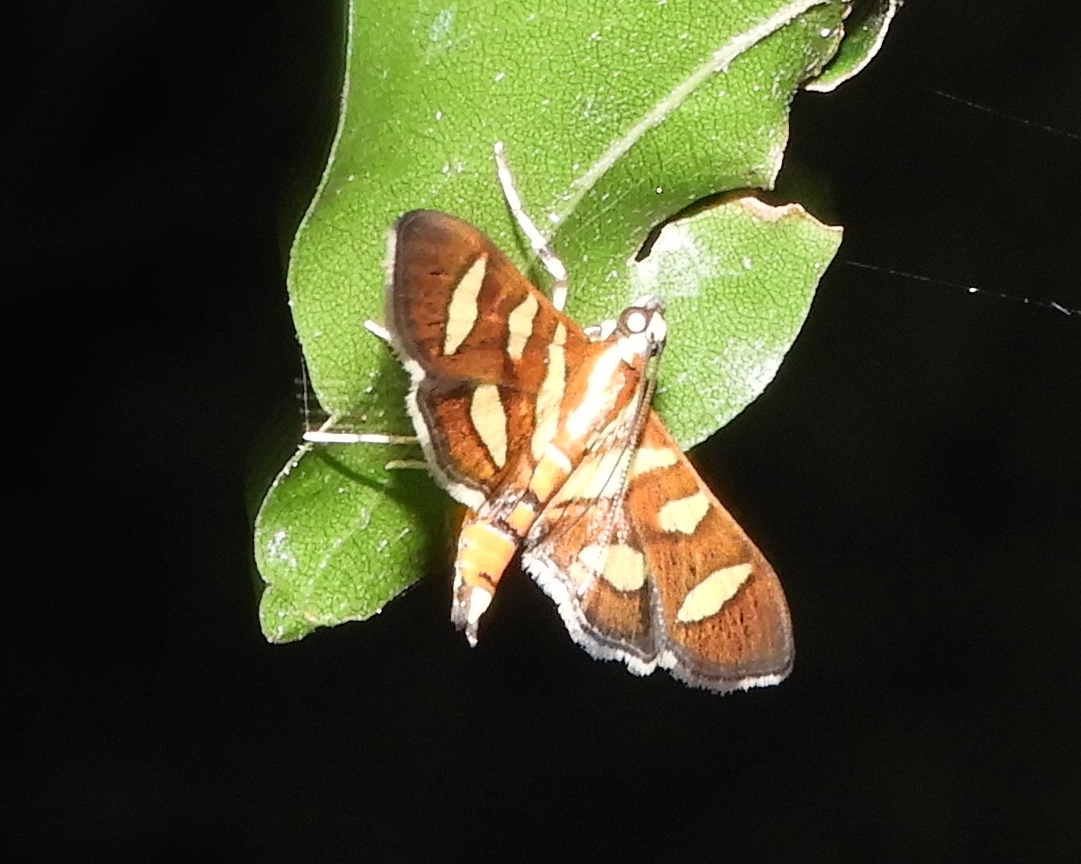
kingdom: Animalia
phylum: Arthropoda
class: Insecta
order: Lepidoptera
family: Crambidae
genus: Syngamia
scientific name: Syngamia florella
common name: Orange-spotted flower moth
